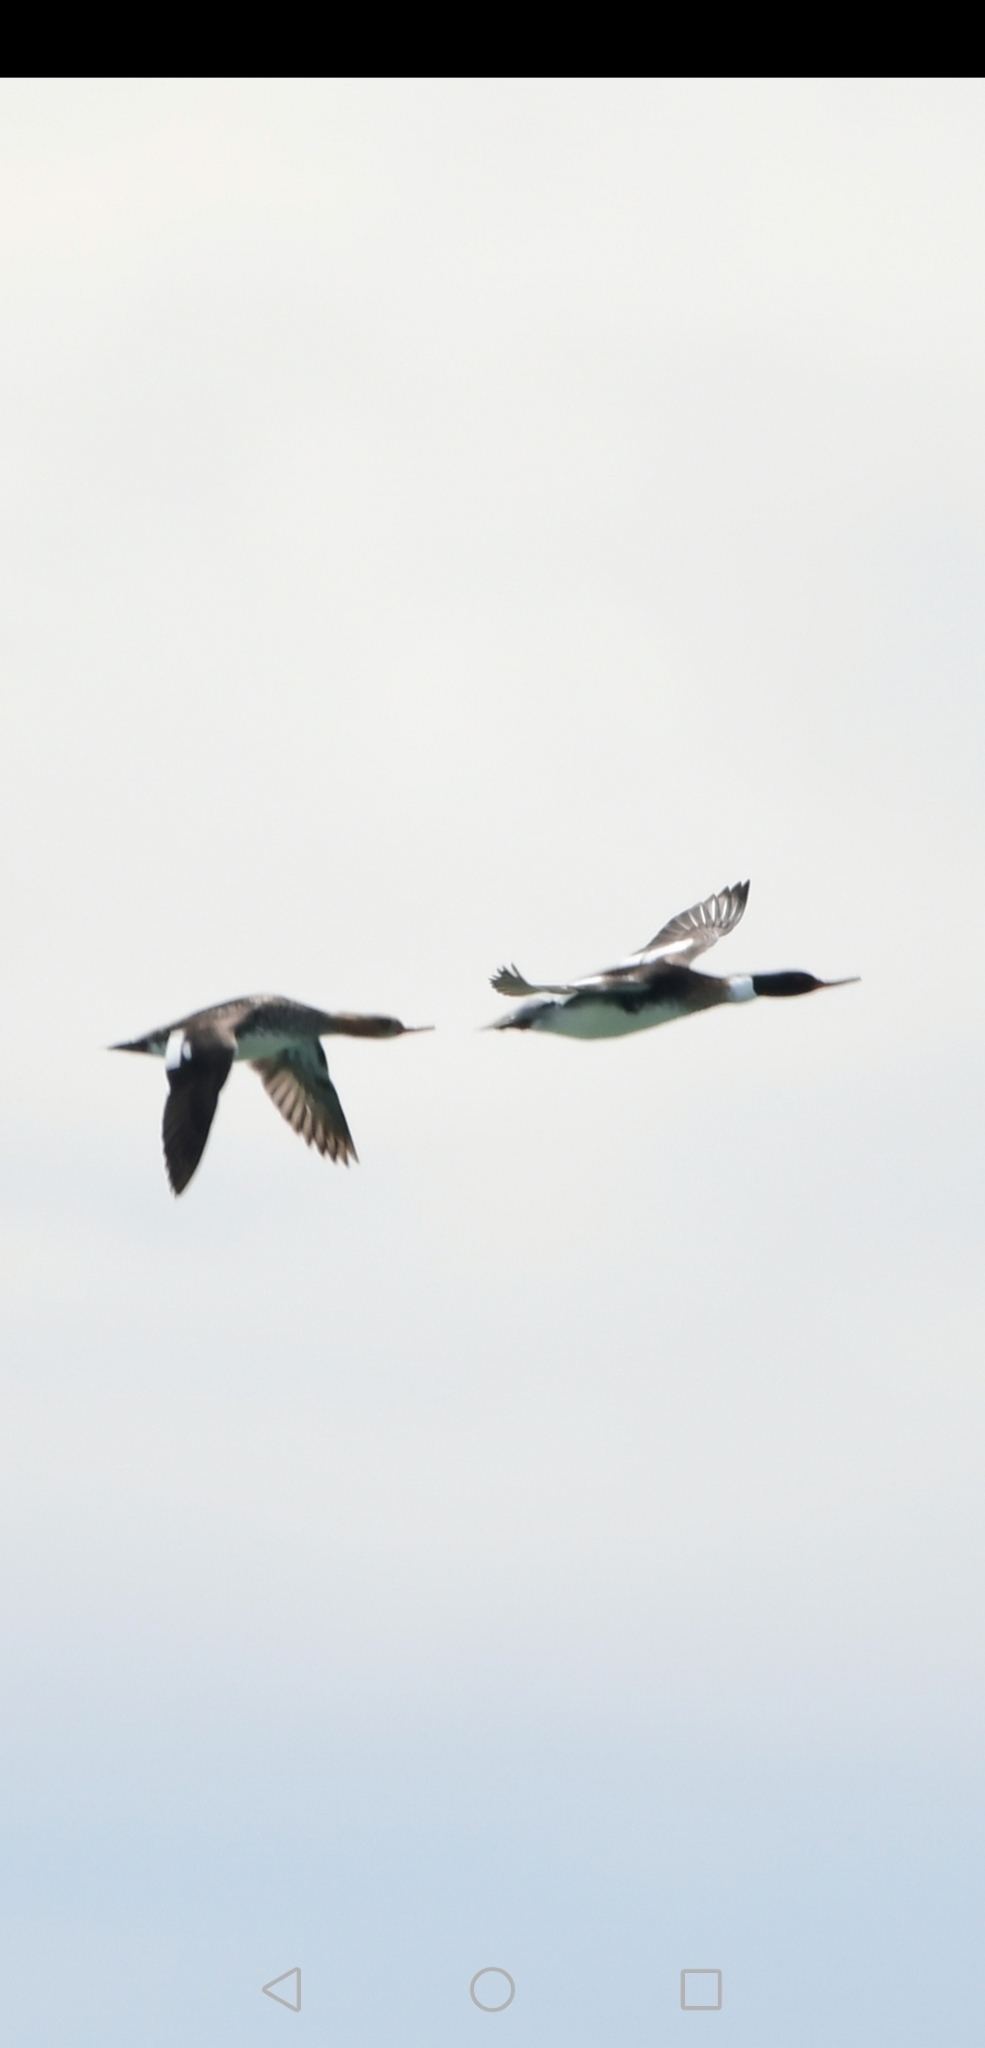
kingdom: Animalia
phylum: Chordata
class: Aves
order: Anseriformes
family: Anatidae
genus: Mergus
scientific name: Mergus serrator
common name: Red-breasted merganser
